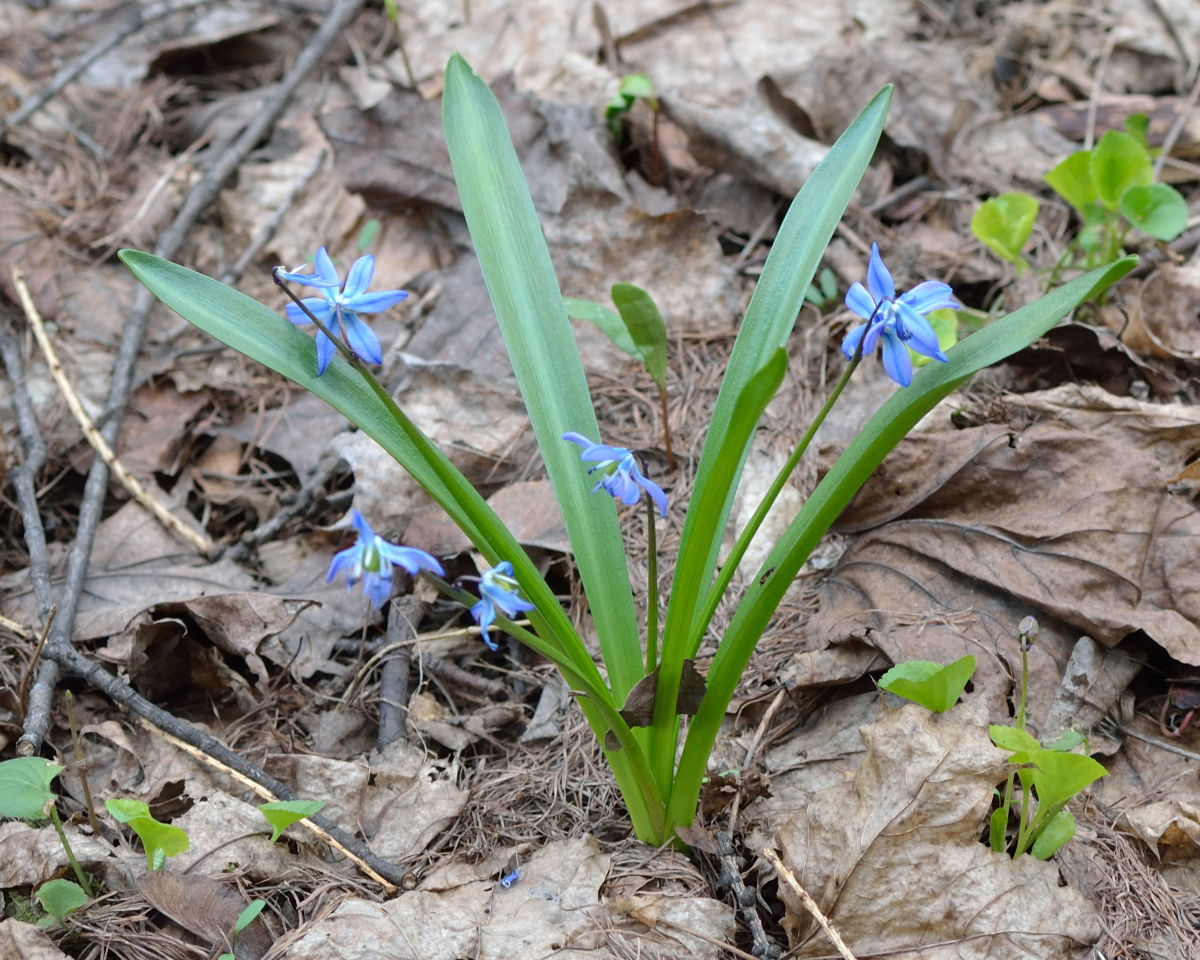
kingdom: Plantae
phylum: Tracheophyta
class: Liliopsida
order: Asparagales
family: Asparagaceae
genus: Scilla
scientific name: Scilla siberica
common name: Siberian squill
